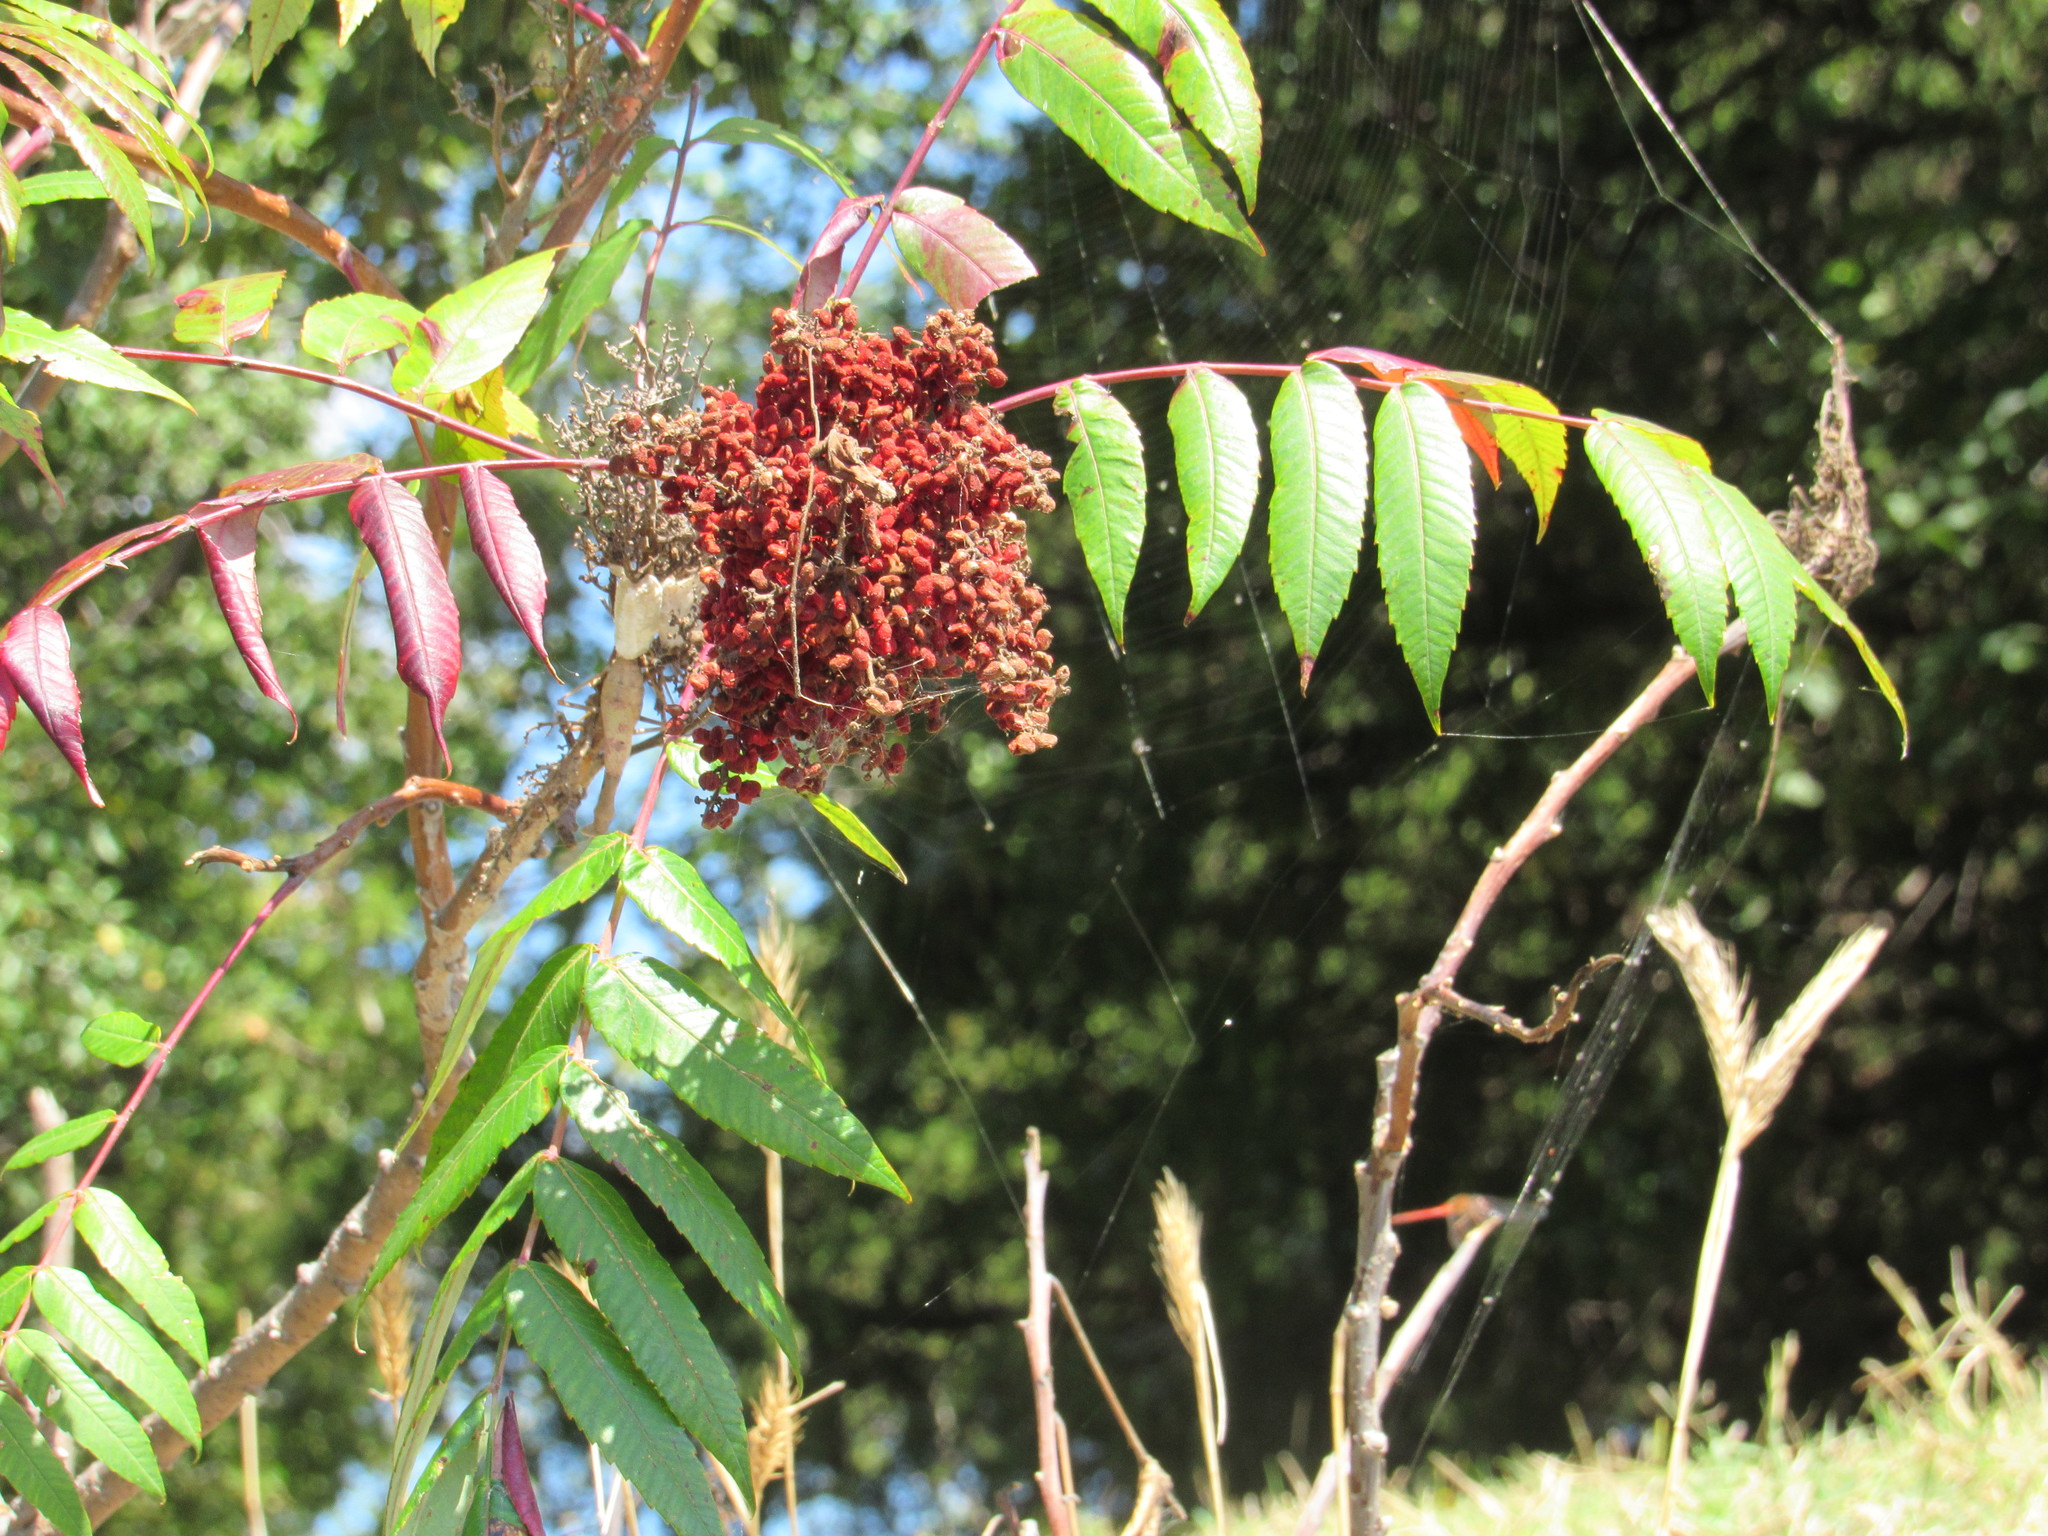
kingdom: Plantae
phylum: Tracheophyta
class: Magnoliopsida
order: Sapindales
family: Anacardiaceae
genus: Rhus
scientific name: Rhus glabra
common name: Scarlet sumac
